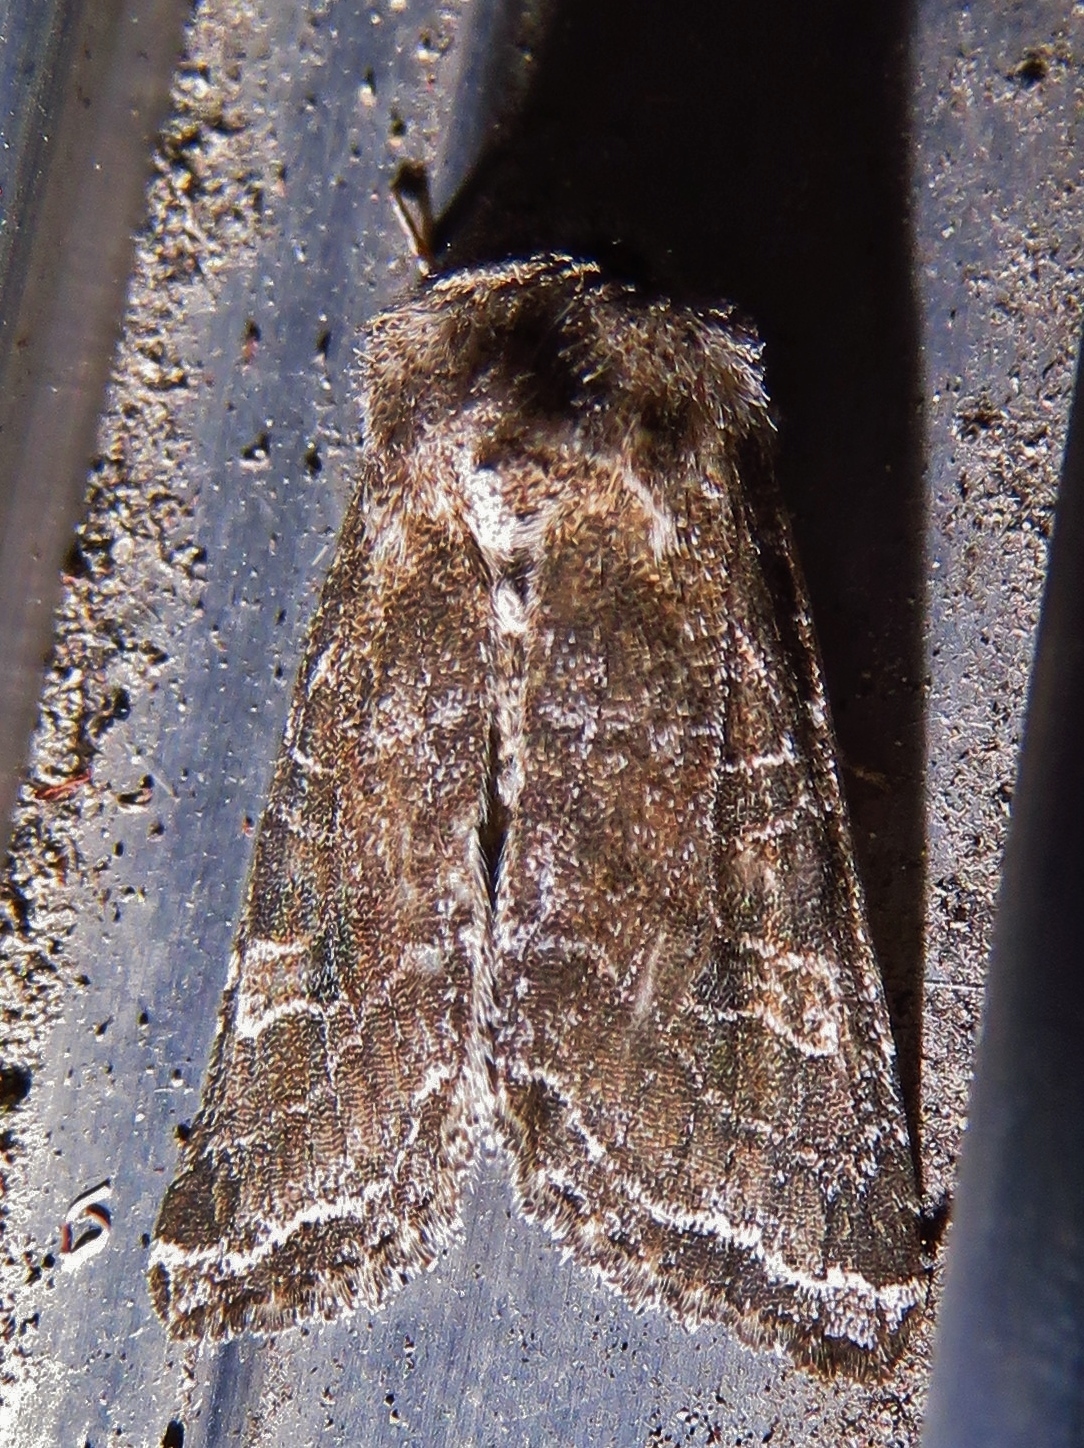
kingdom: Animalia
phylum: Arthropoda
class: Insecta
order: Lepidoptera
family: Noctuidae
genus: Lacinipolia
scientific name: Lacinipolia erecta
